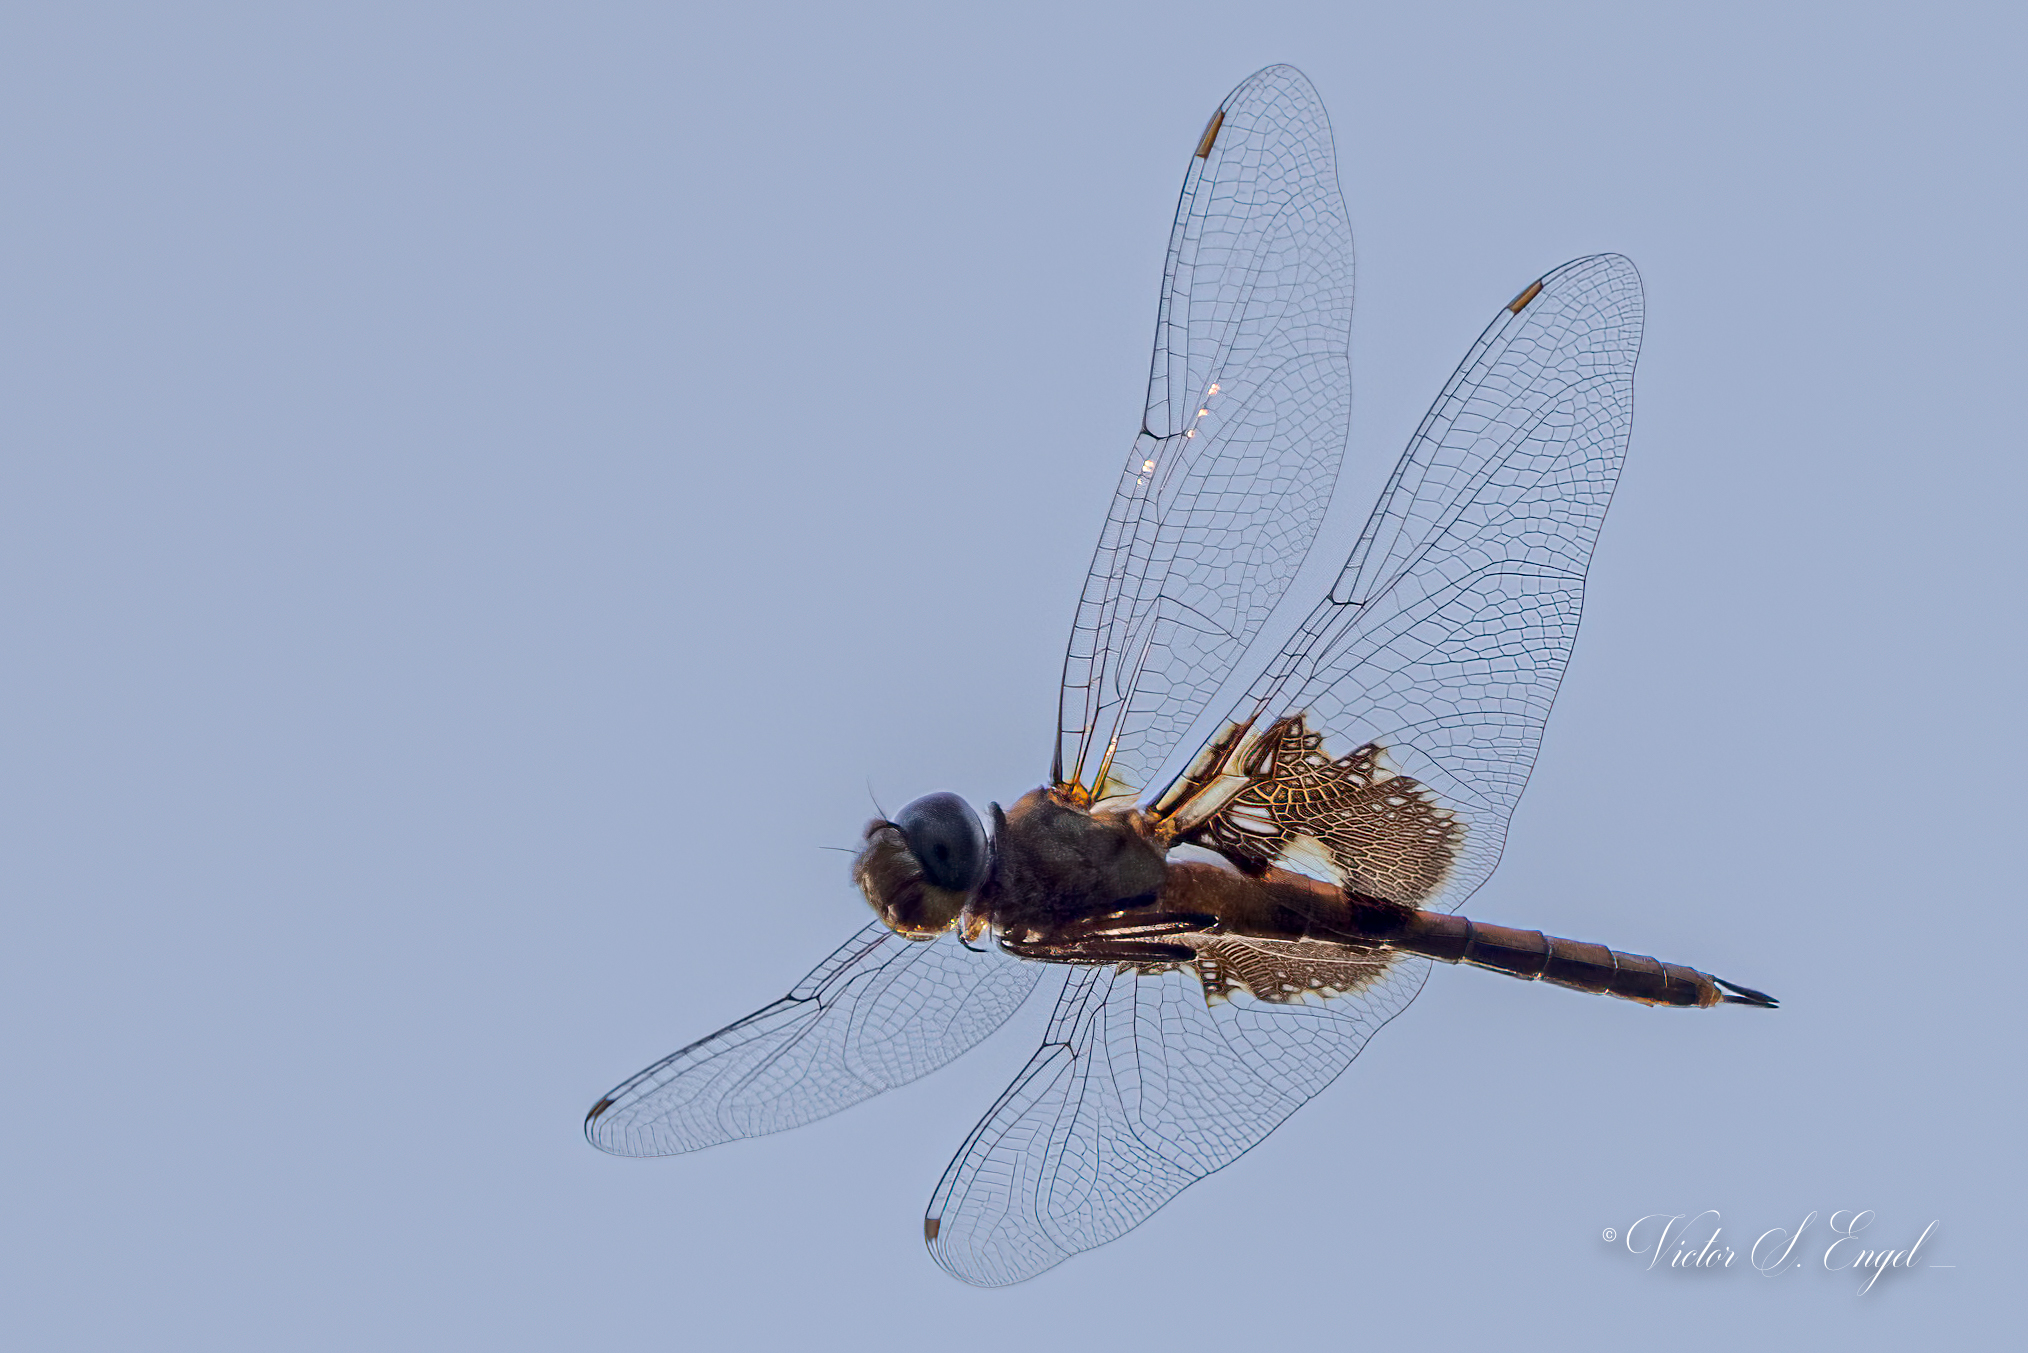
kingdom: Animalia
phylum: Arthropoda
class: Insecta
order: Odonata
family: Libellulidae
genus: Tramea
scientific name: Tramea onusta
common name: Red saddlebags
